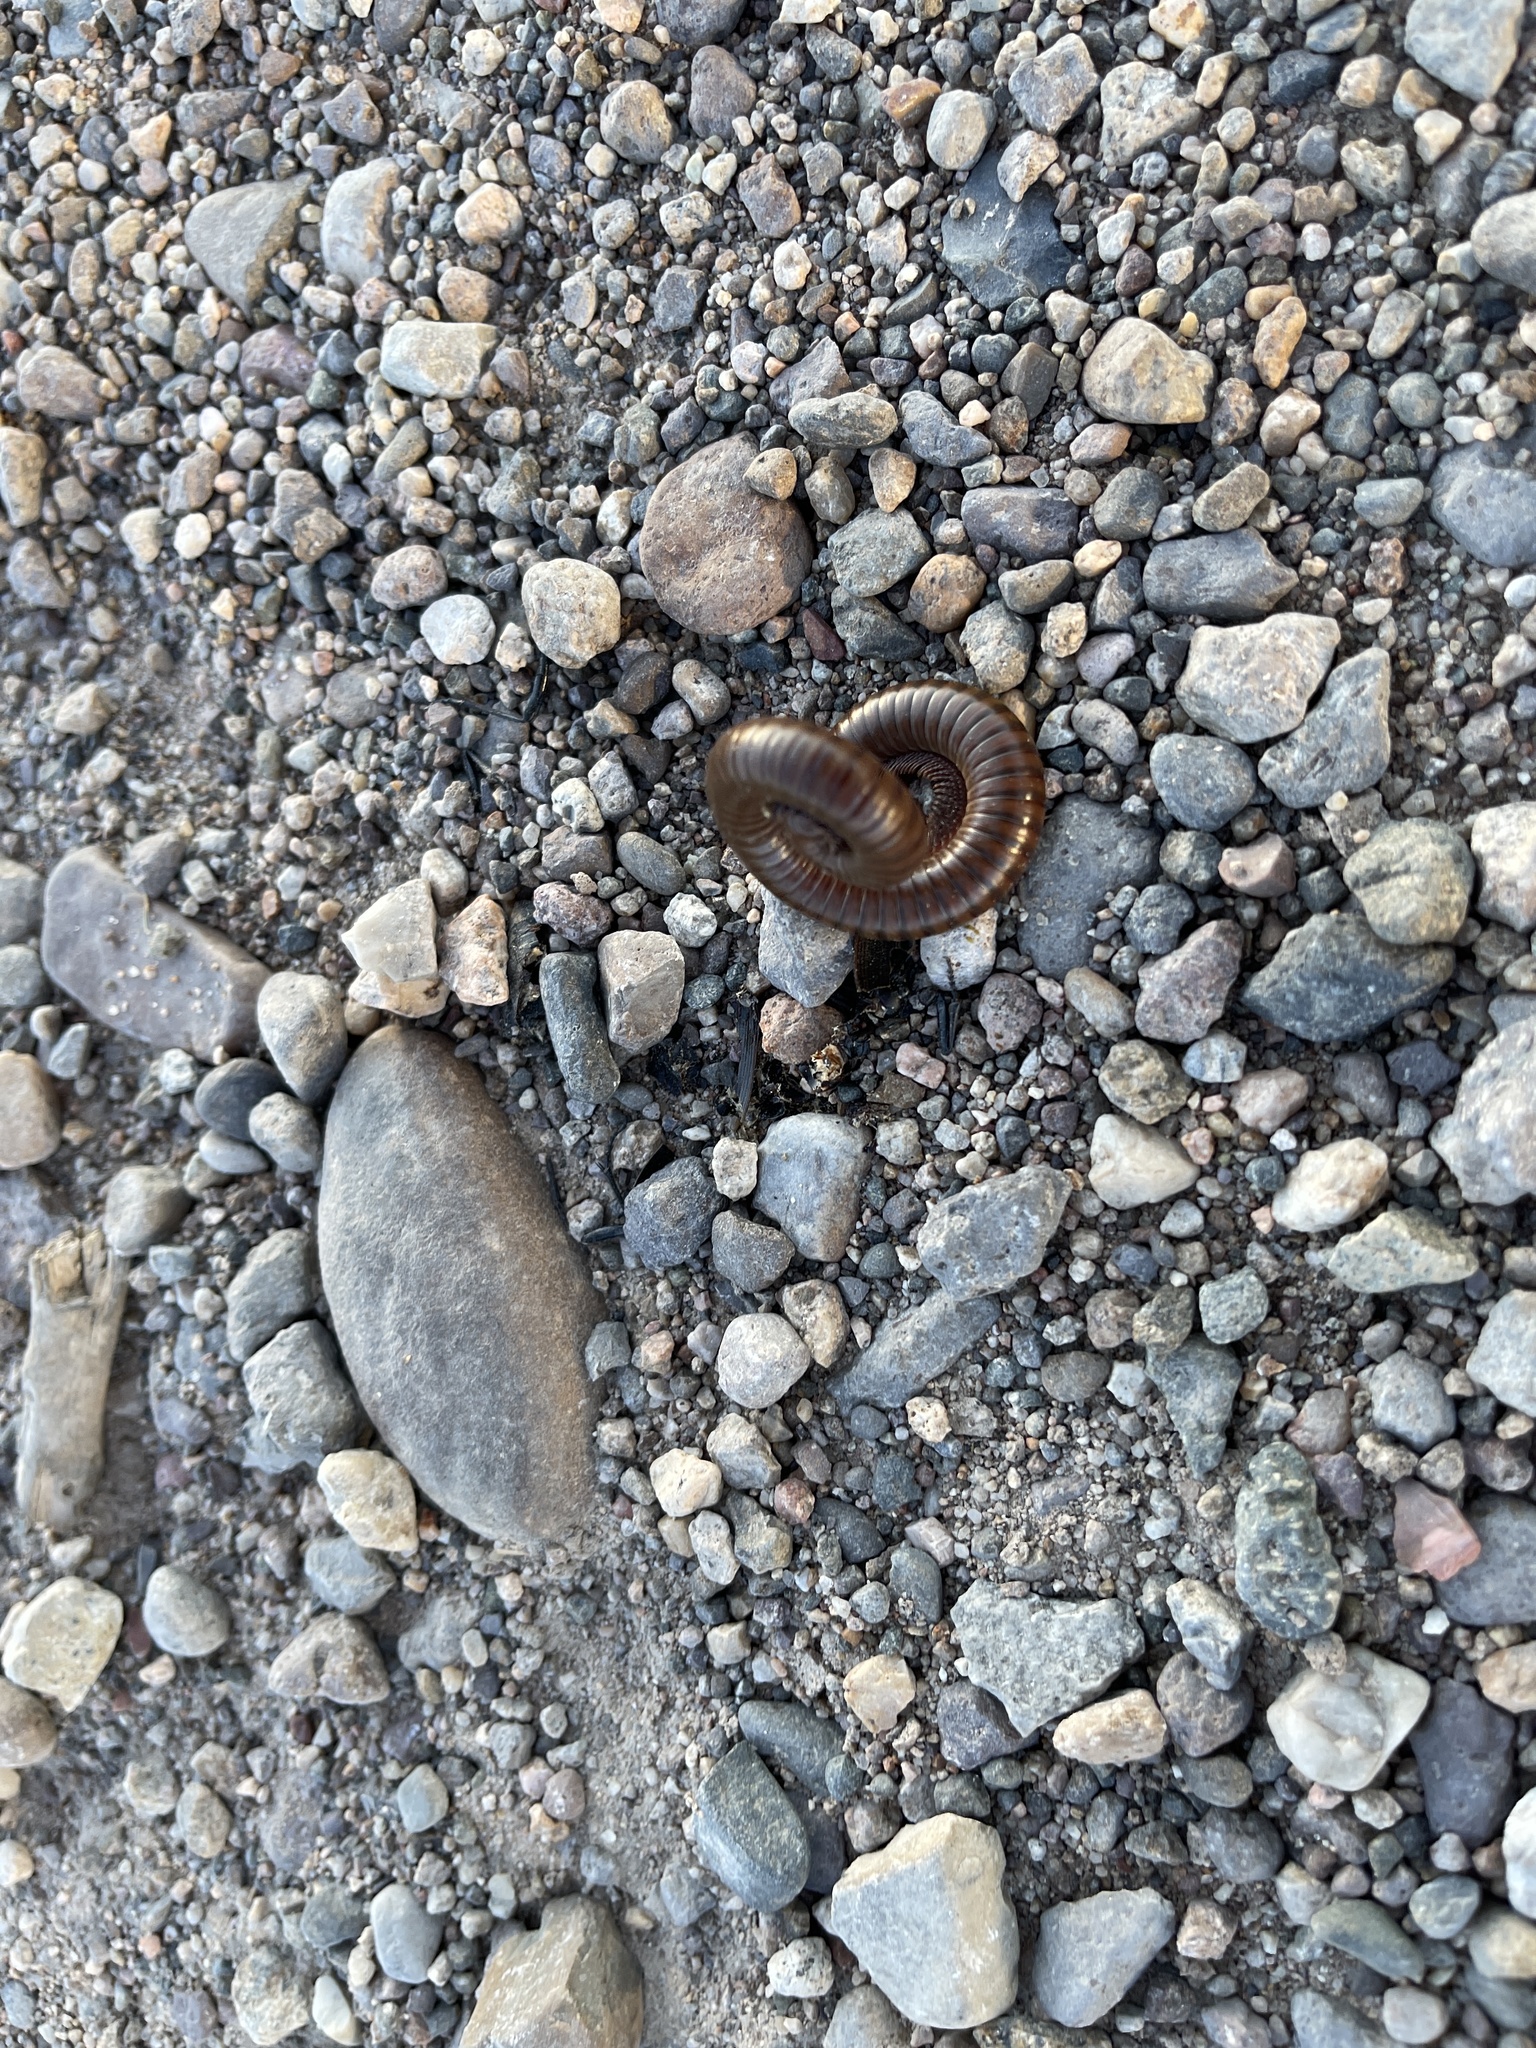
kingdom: Animalia
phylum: Arthropoda
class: Diplopoda
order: Spirostreptida
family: Spirostreptidae
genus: Orthoporus
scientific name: Orthoporus ornatus
